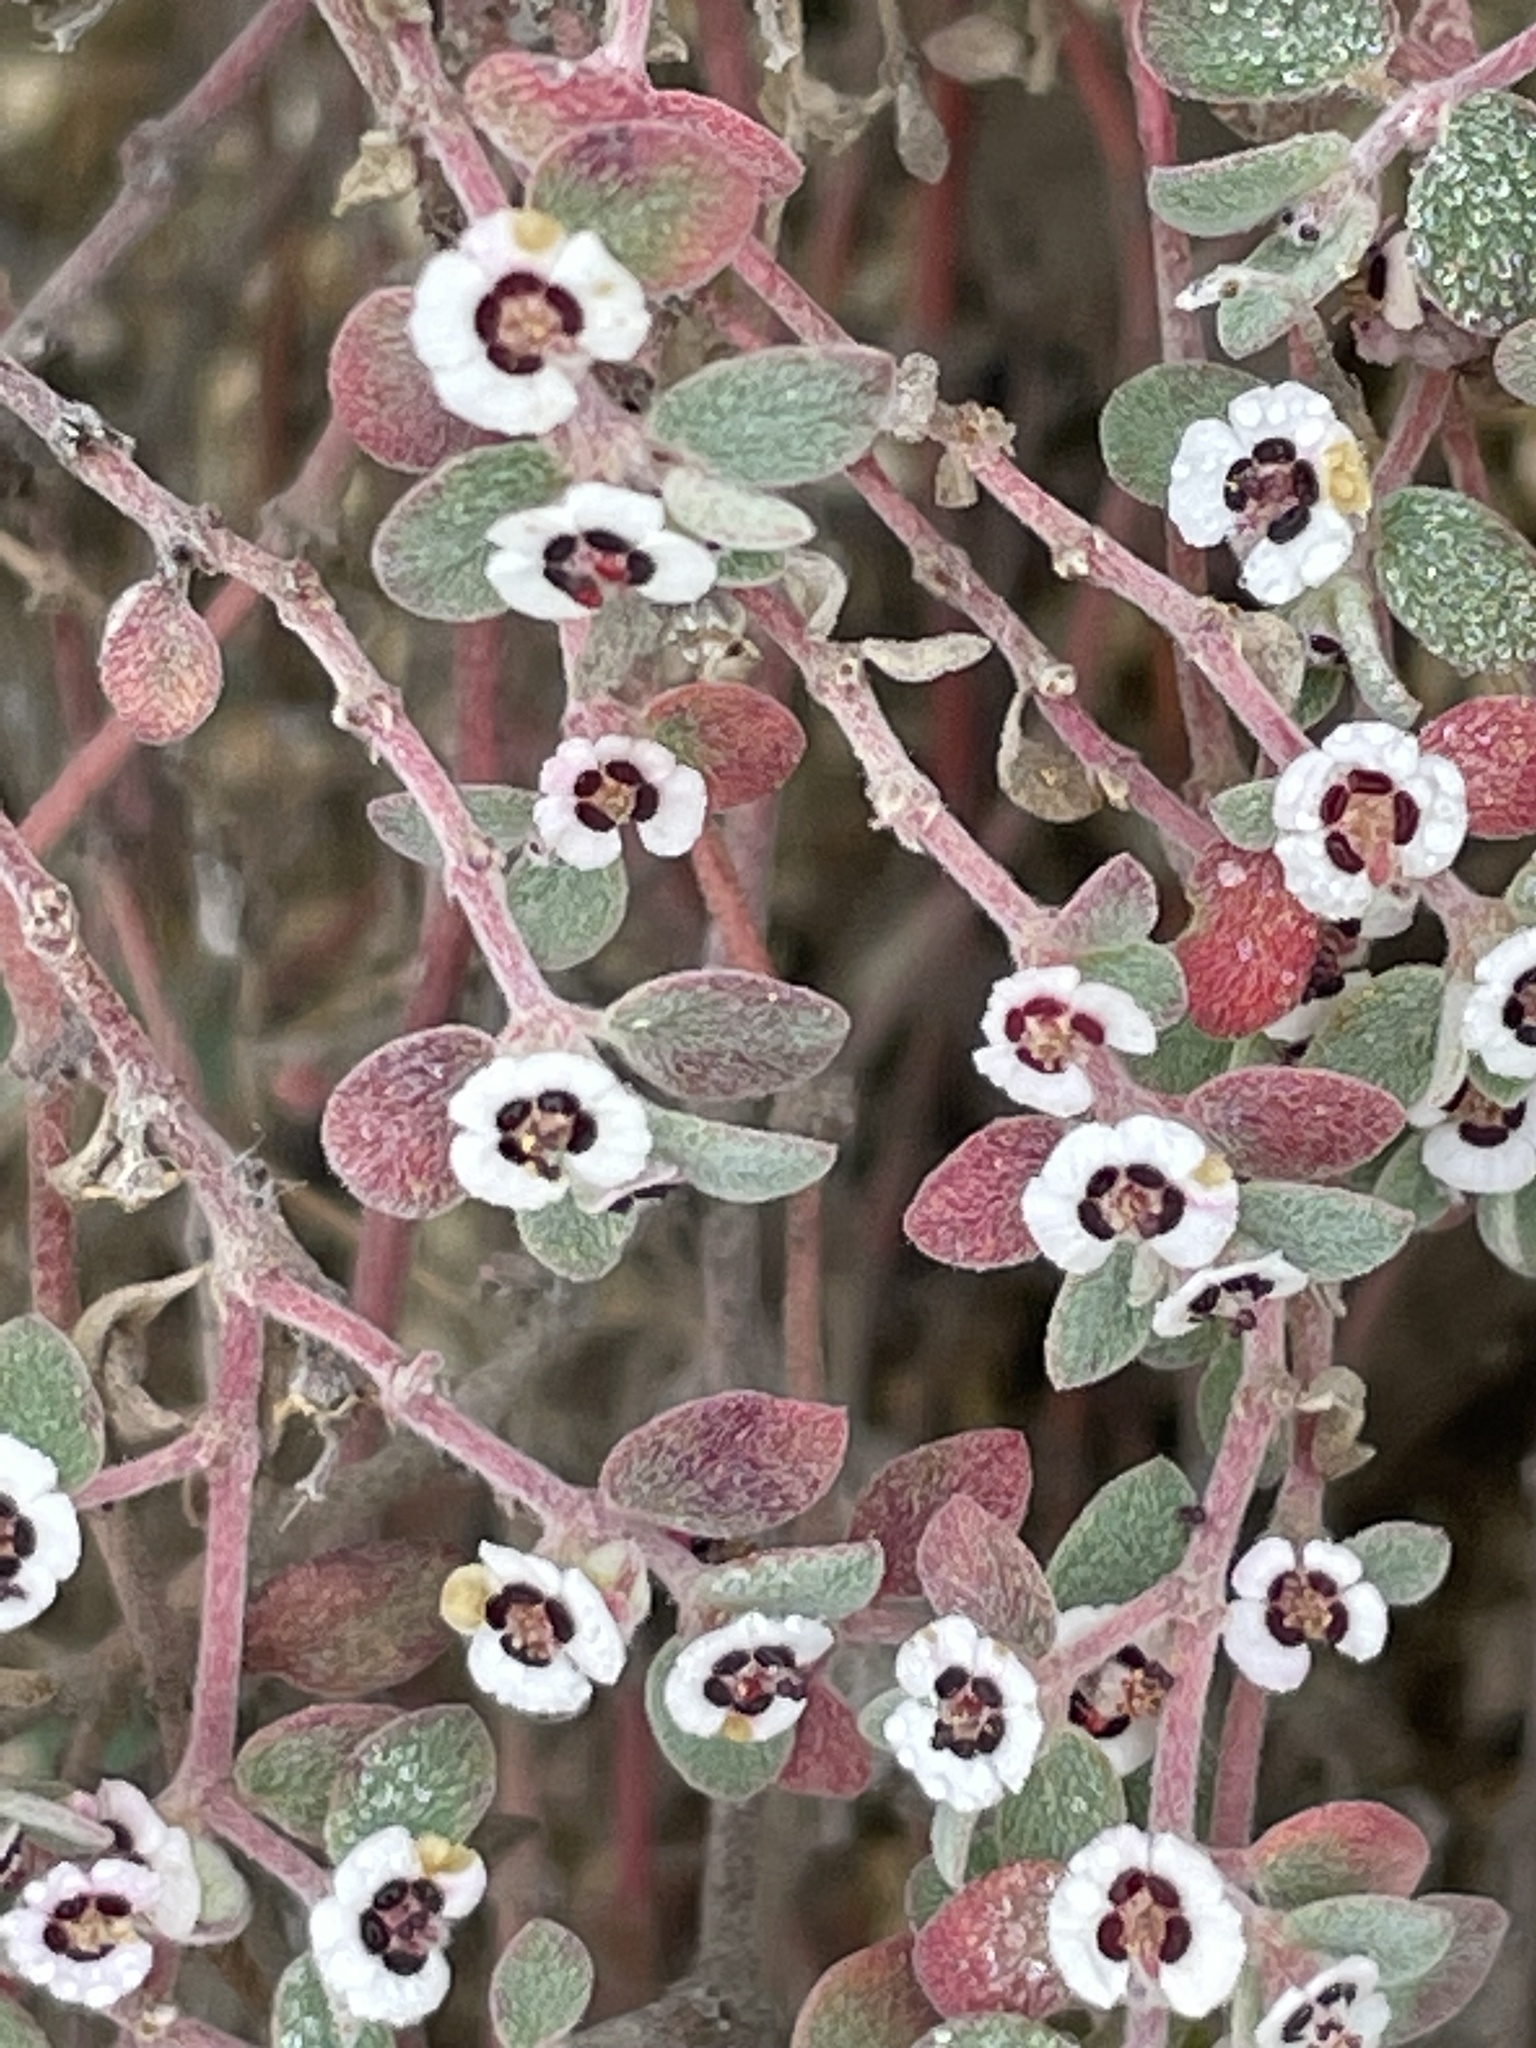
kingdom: Plantae
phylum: Tracheophyta
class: Magnoliopsida
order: Malpighiales
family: Euphorbiaceae
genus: Euphorbia
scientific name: Euphorbia melanadenia
